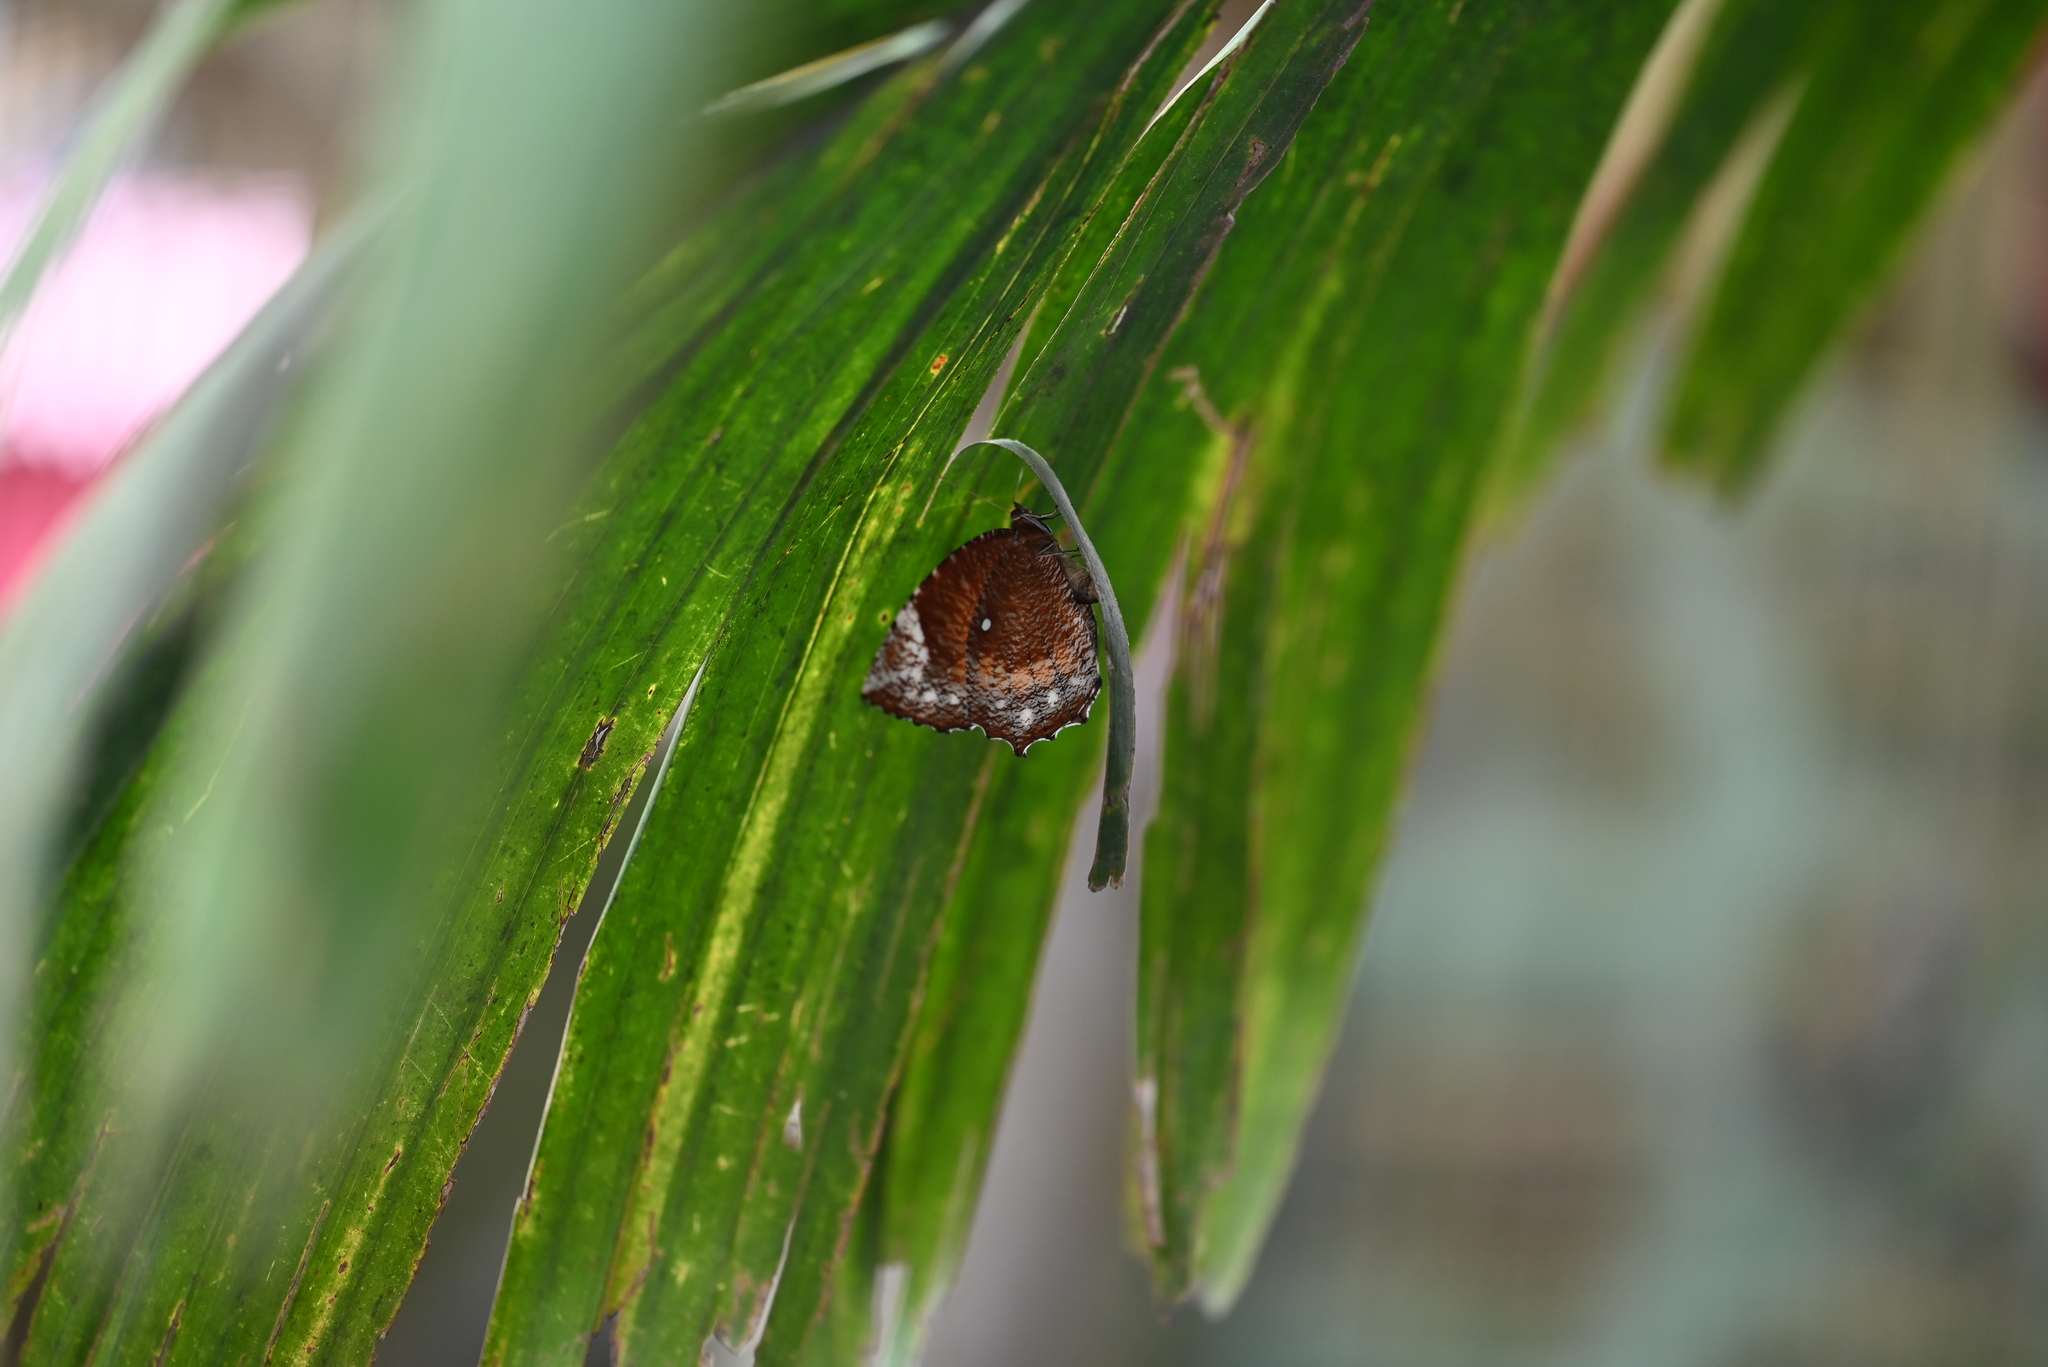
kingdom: Animalia
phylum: Arthropoda
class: Insecta
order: Lepidoptera
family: Nymphalidae
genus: Elymnias
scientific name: Elymnias hypermnestra
